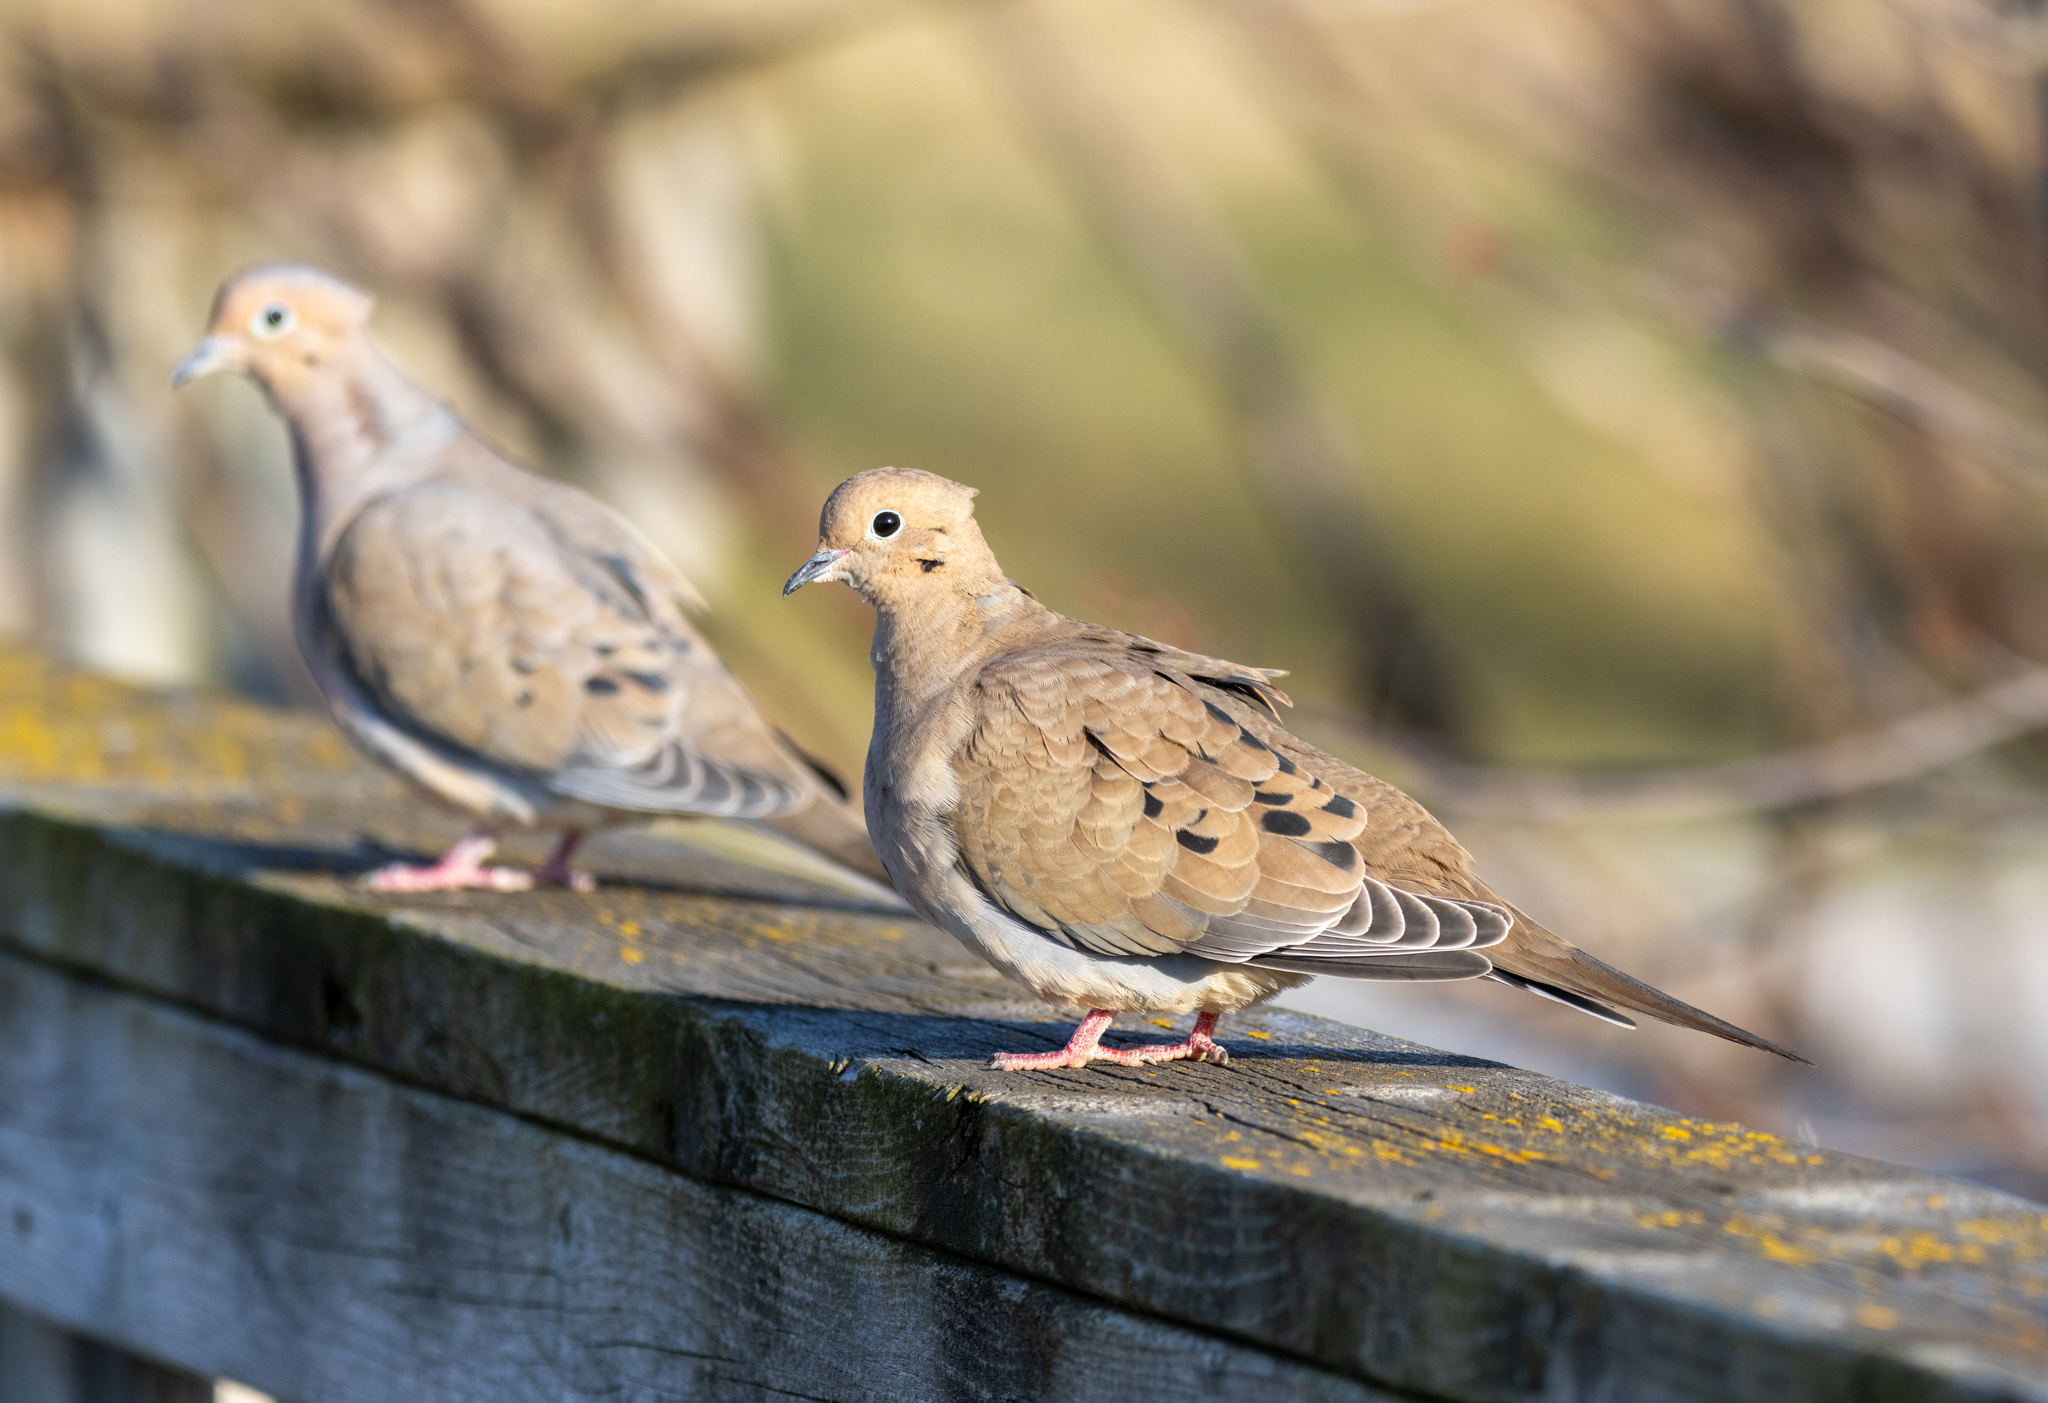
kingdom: Animalia
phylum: Chordata
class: Aves
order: Columbiformes
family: Columbidae
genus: Zenaida
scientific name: Zenaida macroura
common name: Mourning dove
